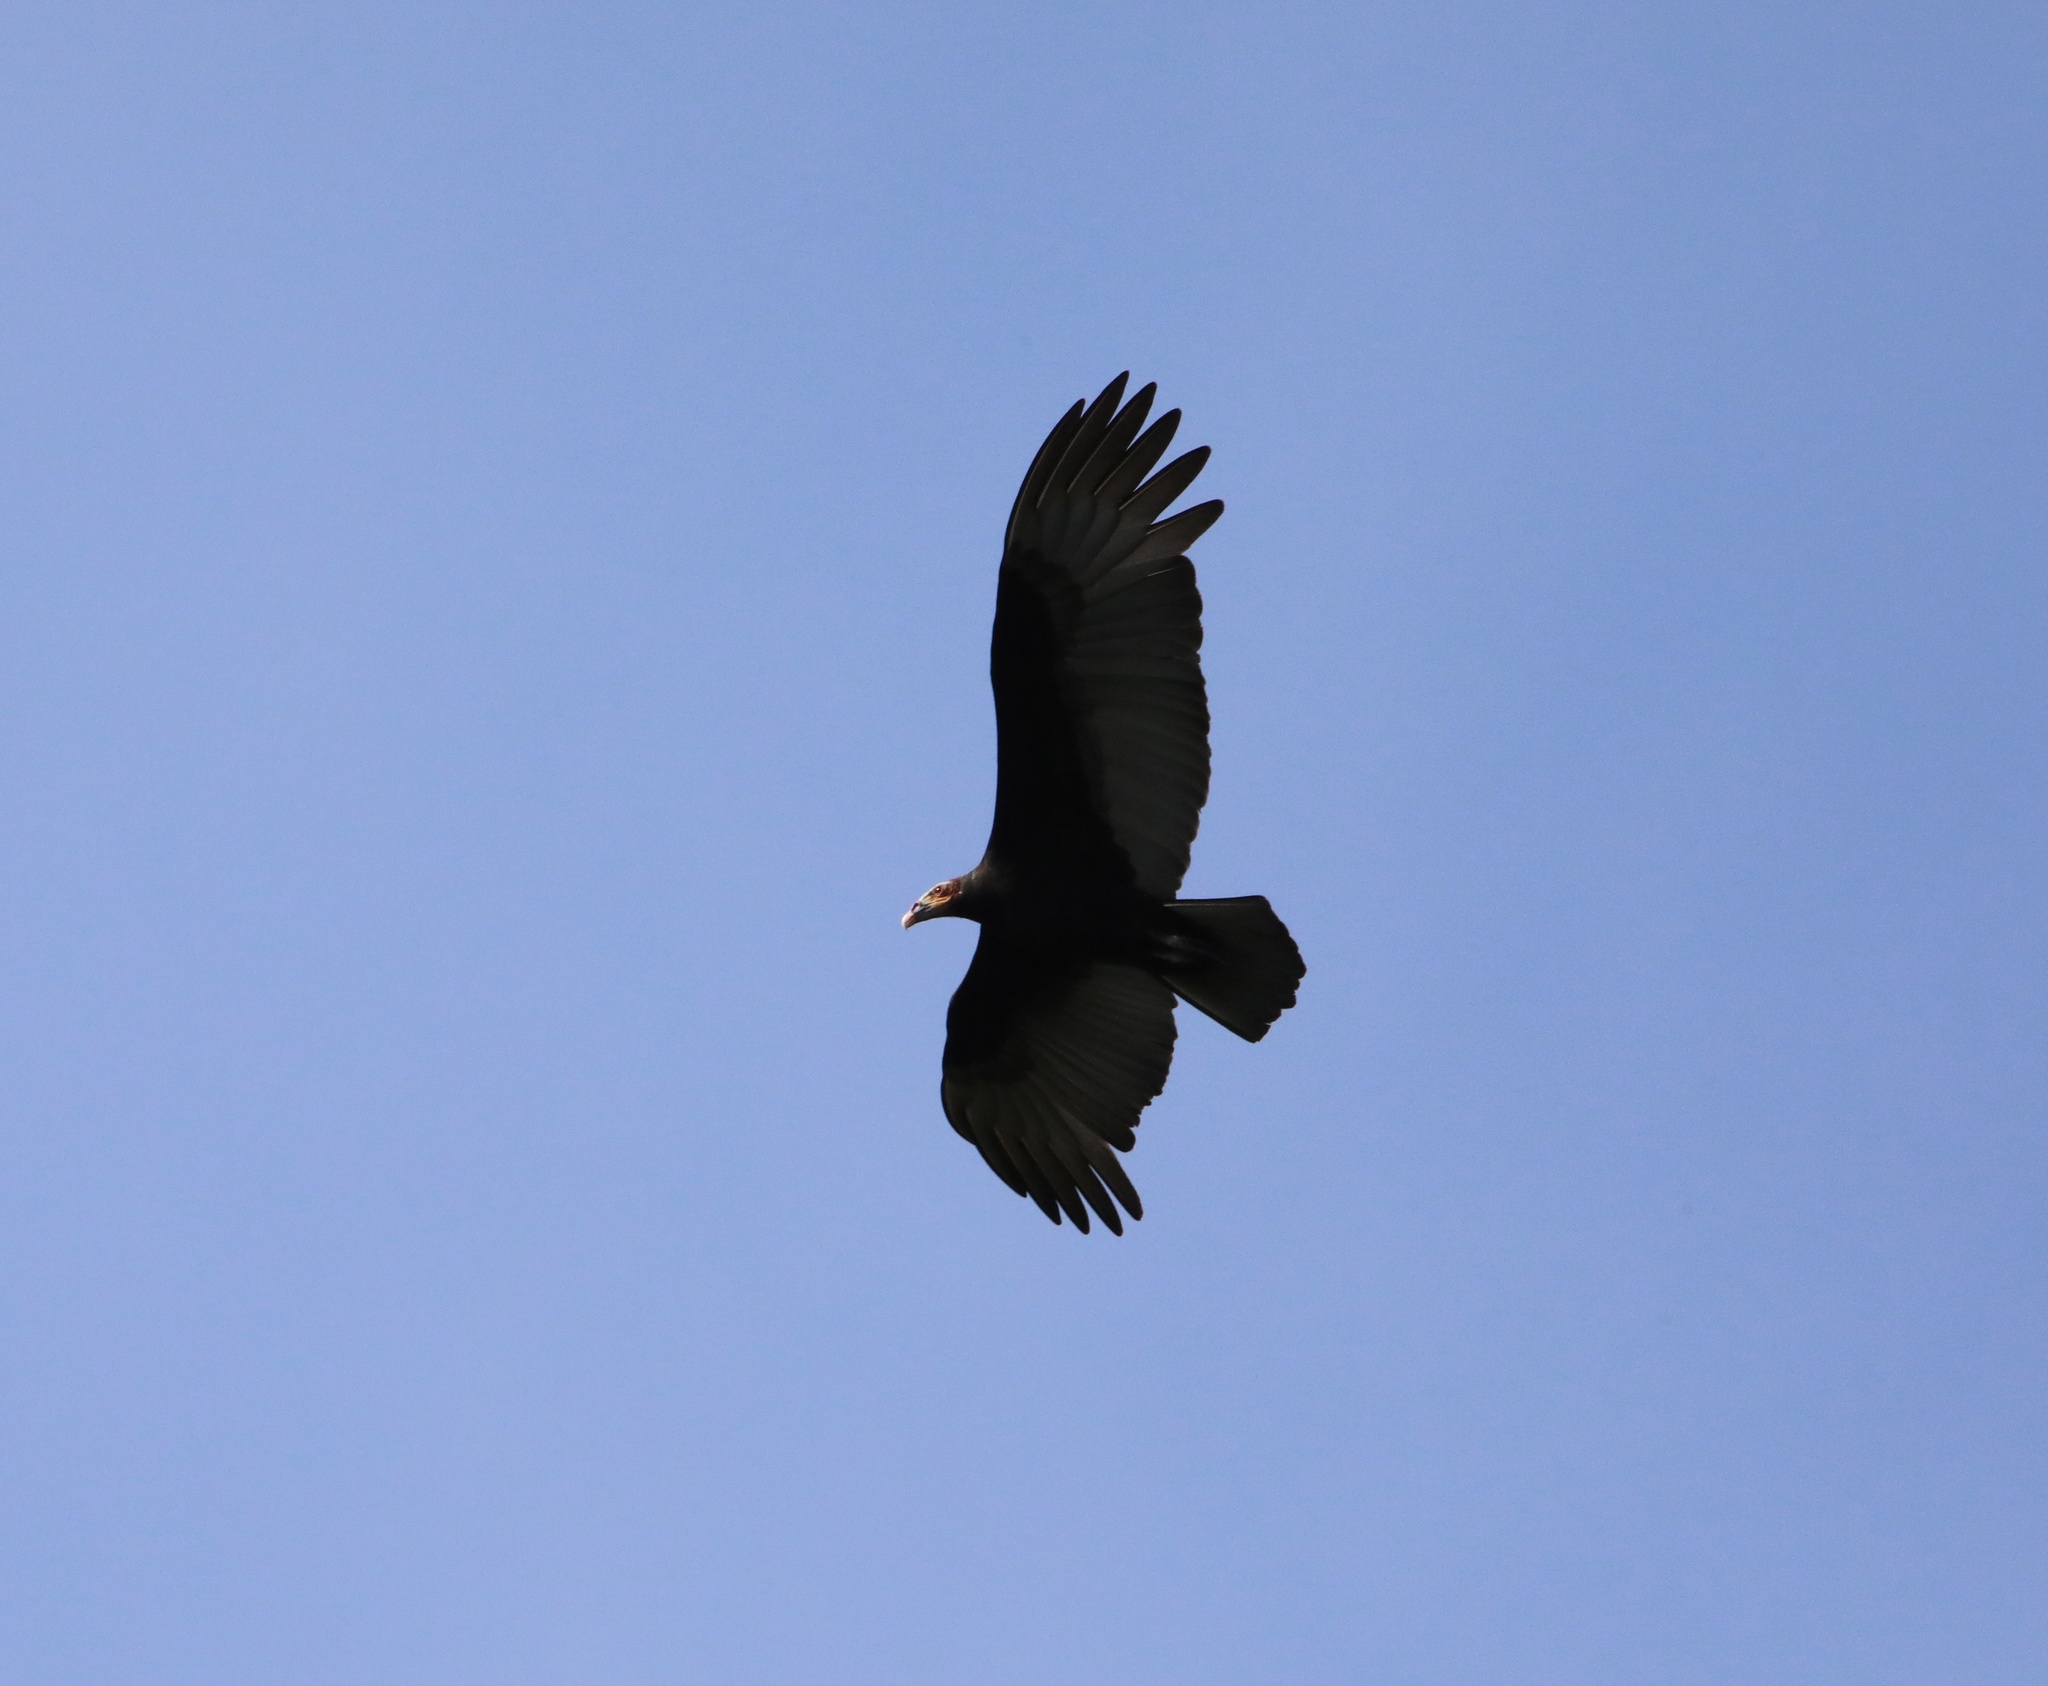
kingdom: Animalia
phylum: Chordata
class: Aves
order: Accipitriformes
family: Cathartidae
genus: Cathartes
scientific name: Cathartes burrovianus
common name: Lesser yellow-headed vulture
